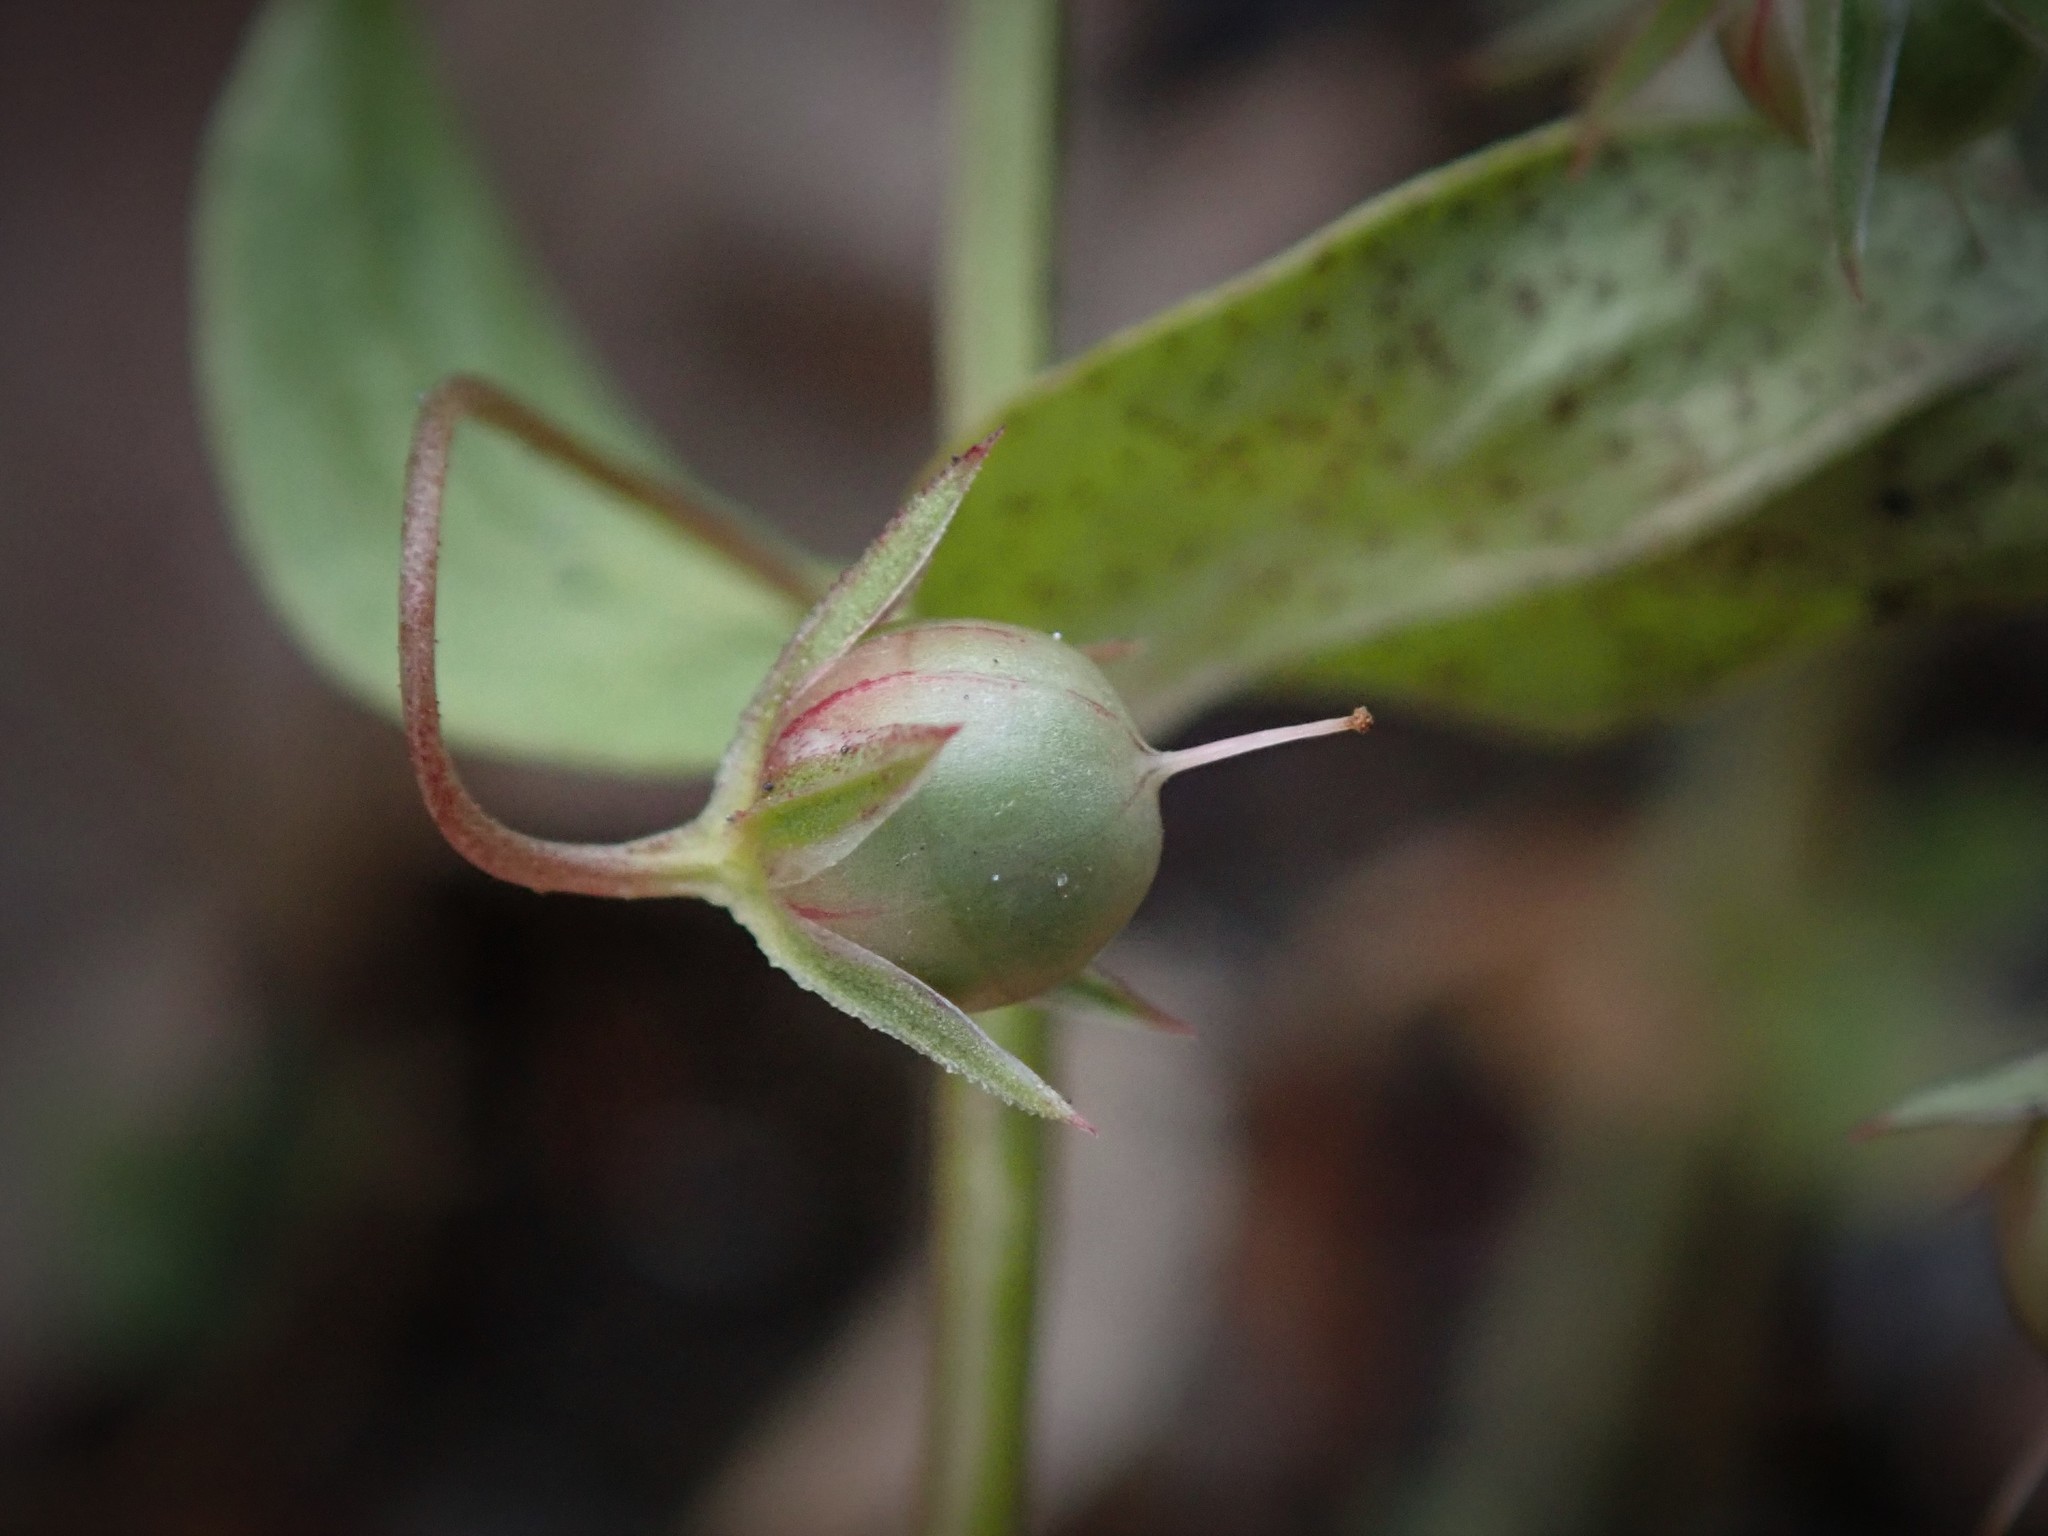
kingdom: Plantae
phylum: Tracheophyta
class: Magnoliopsida
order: Ericales
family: Primulaceae
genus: Lysimachia
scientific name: Lysimachia arvensis
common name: Scarlet pimpernel
